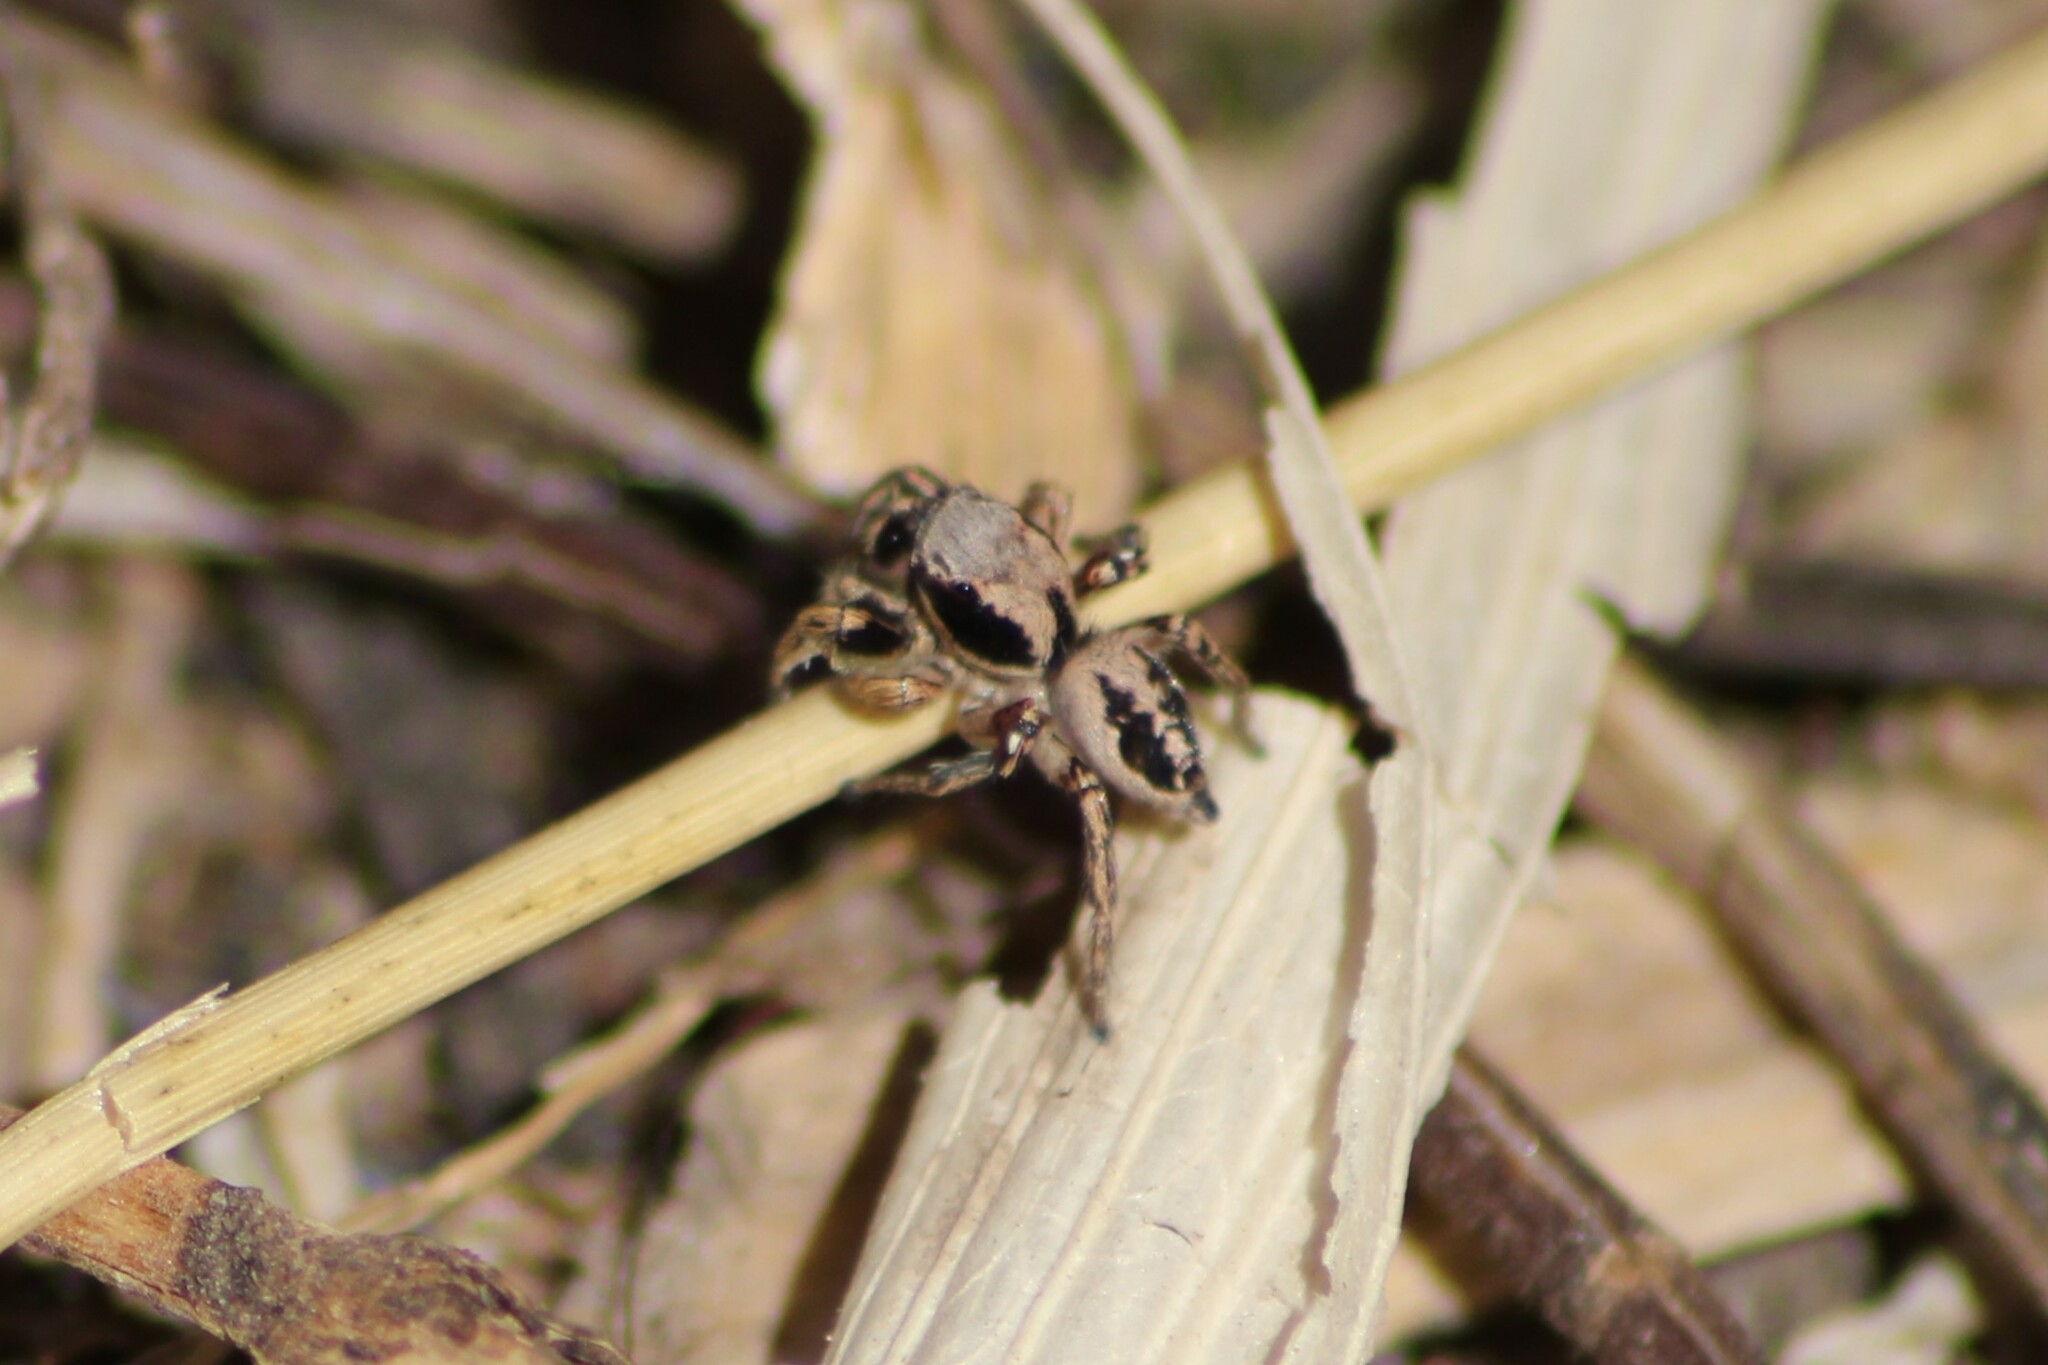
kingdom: Animalia
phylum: Arthropoda
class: Arachnida
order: Araneae
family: Salticidae
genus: Habronattus
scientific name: Habronattus mexicanus
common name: Jumping spiders
